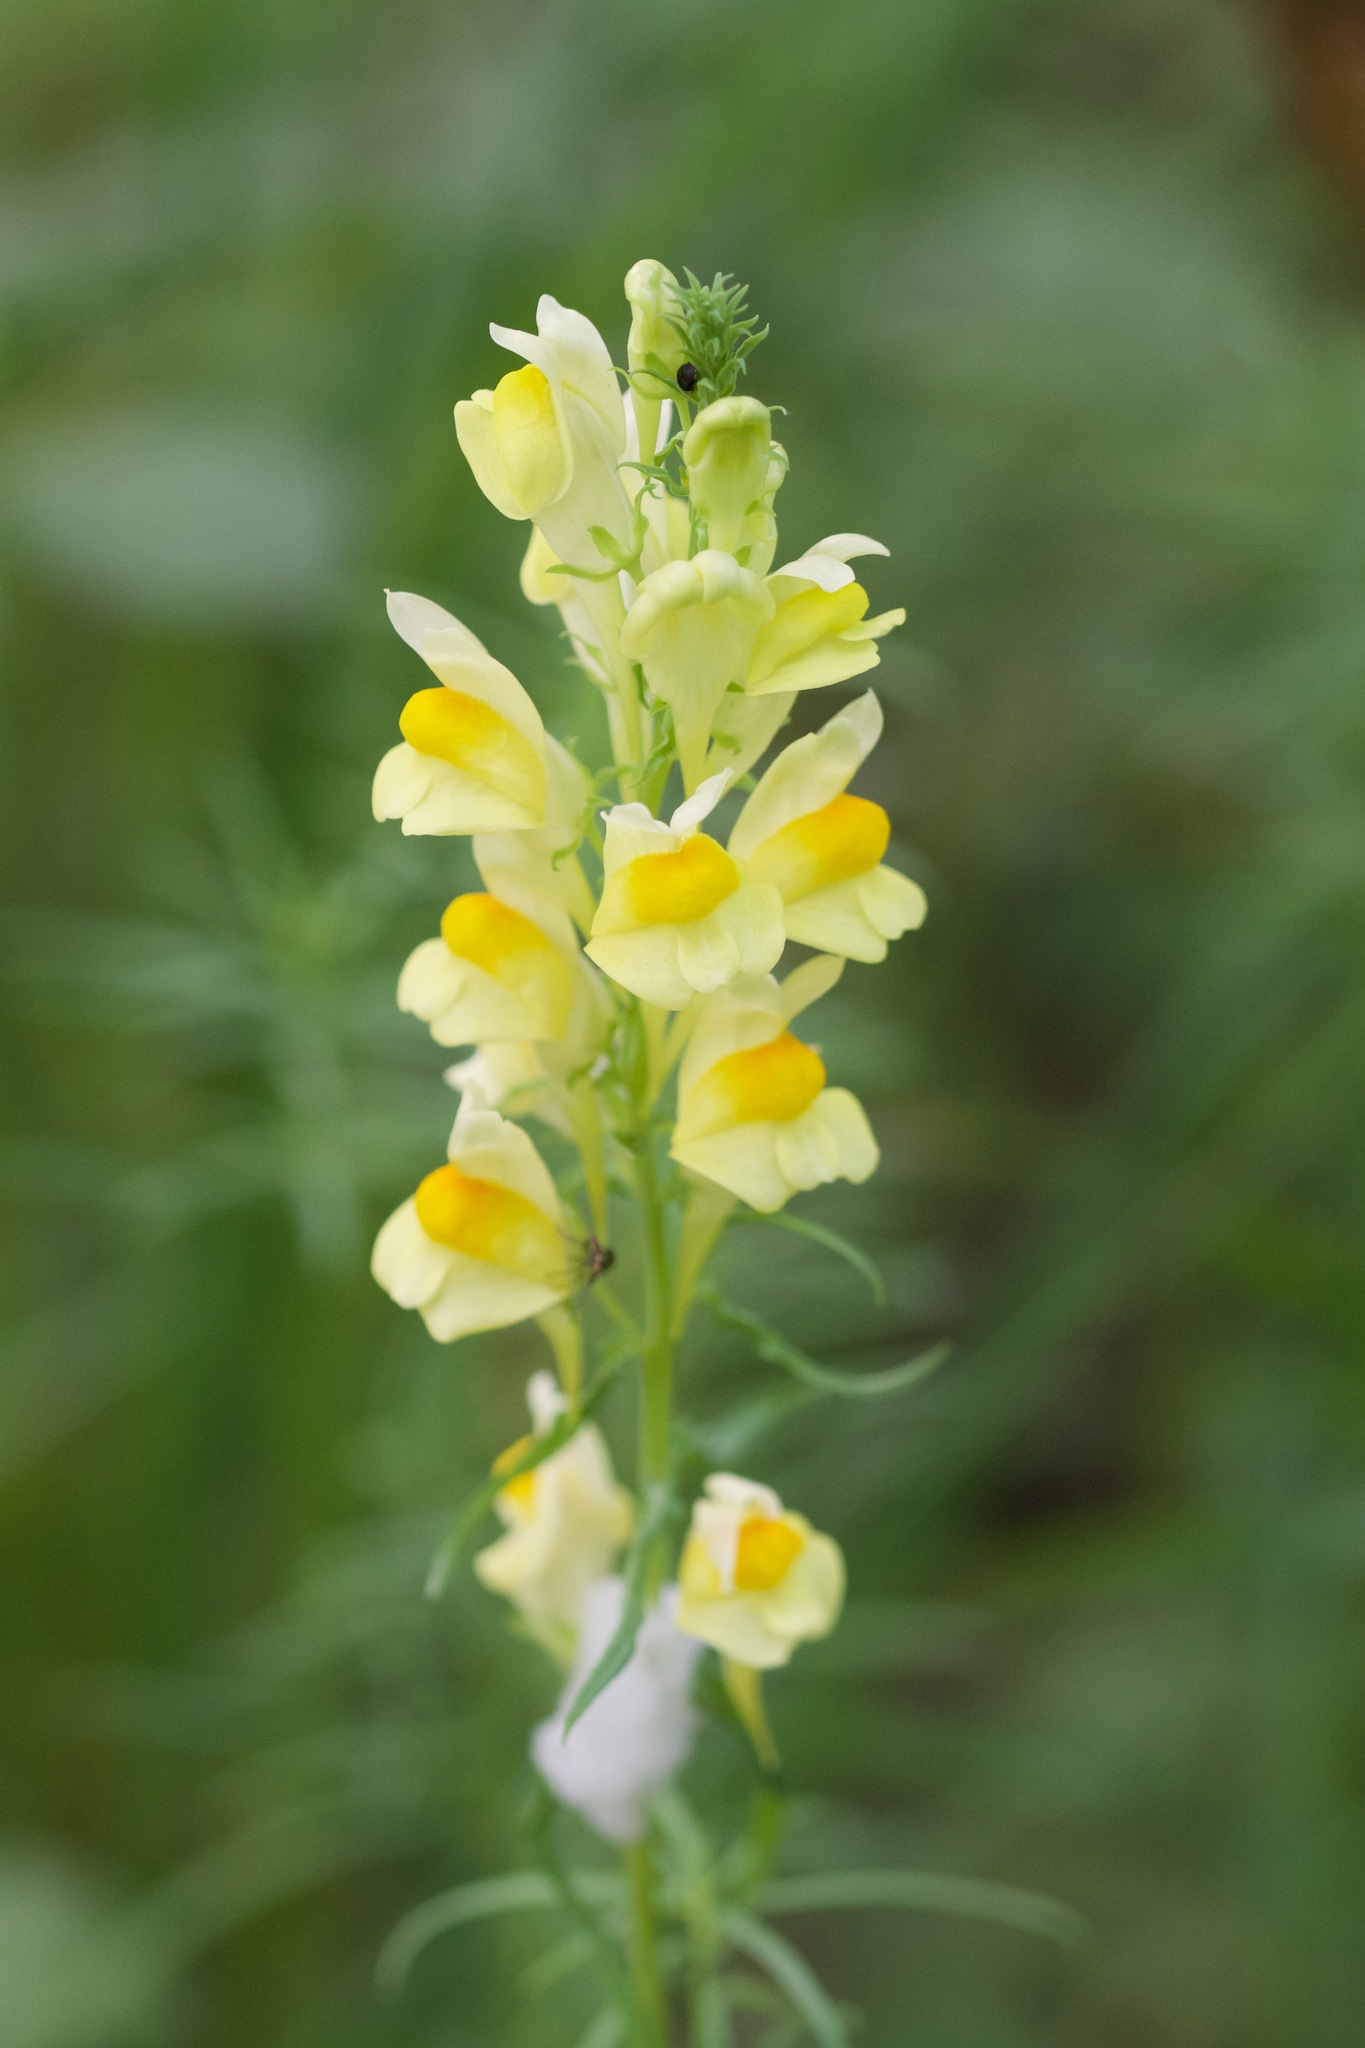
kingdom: Plantae
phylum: Tracheophyta
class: Magnoliopsida
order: Lamiales
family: Plantaginaceae
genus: Linaria
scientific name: Linaria vulgaris
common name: Butter and eggs
